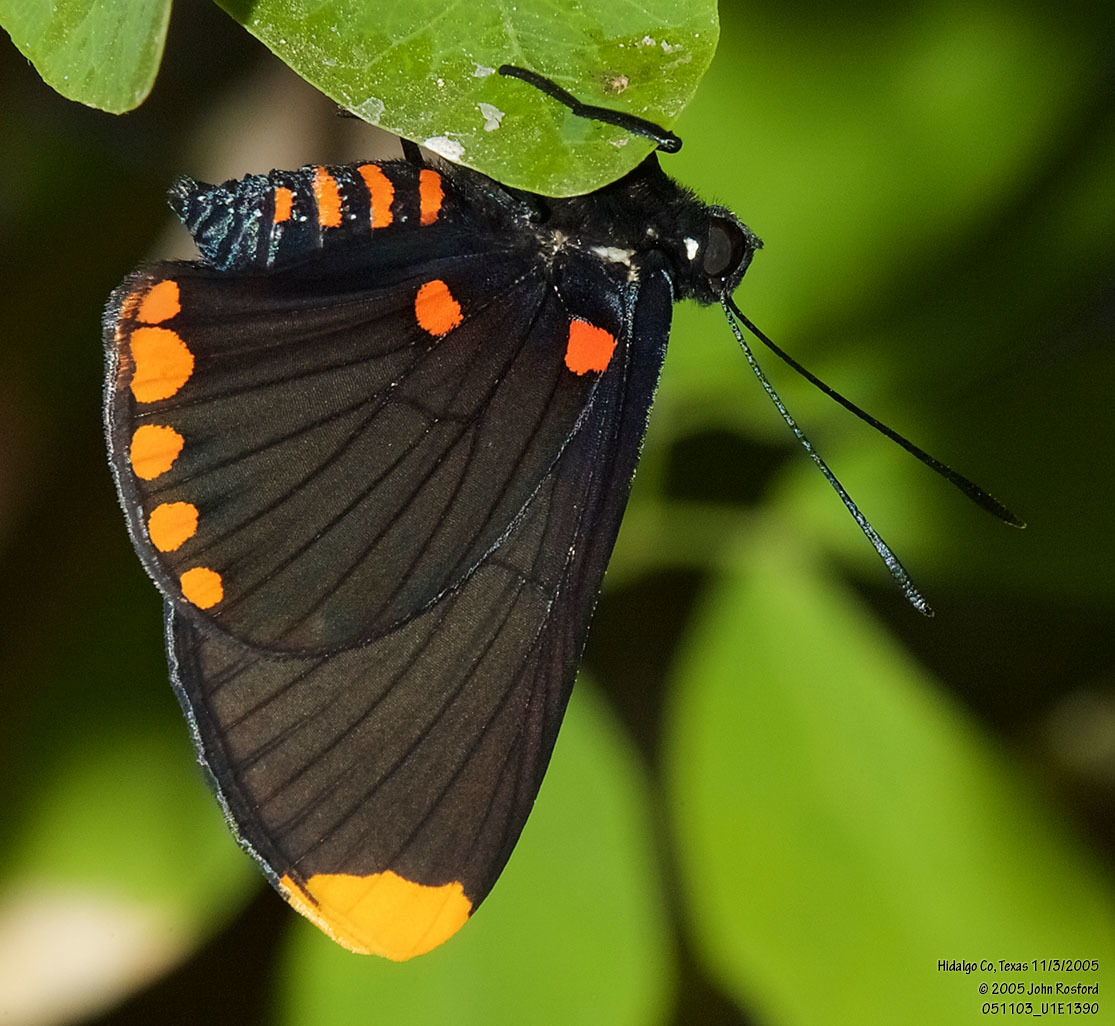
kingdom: Animalia
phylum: Arthropoda
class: Insecta
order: Lepidoptera
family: Lycaenidae
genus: Melanis
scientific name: Melanis pixe
